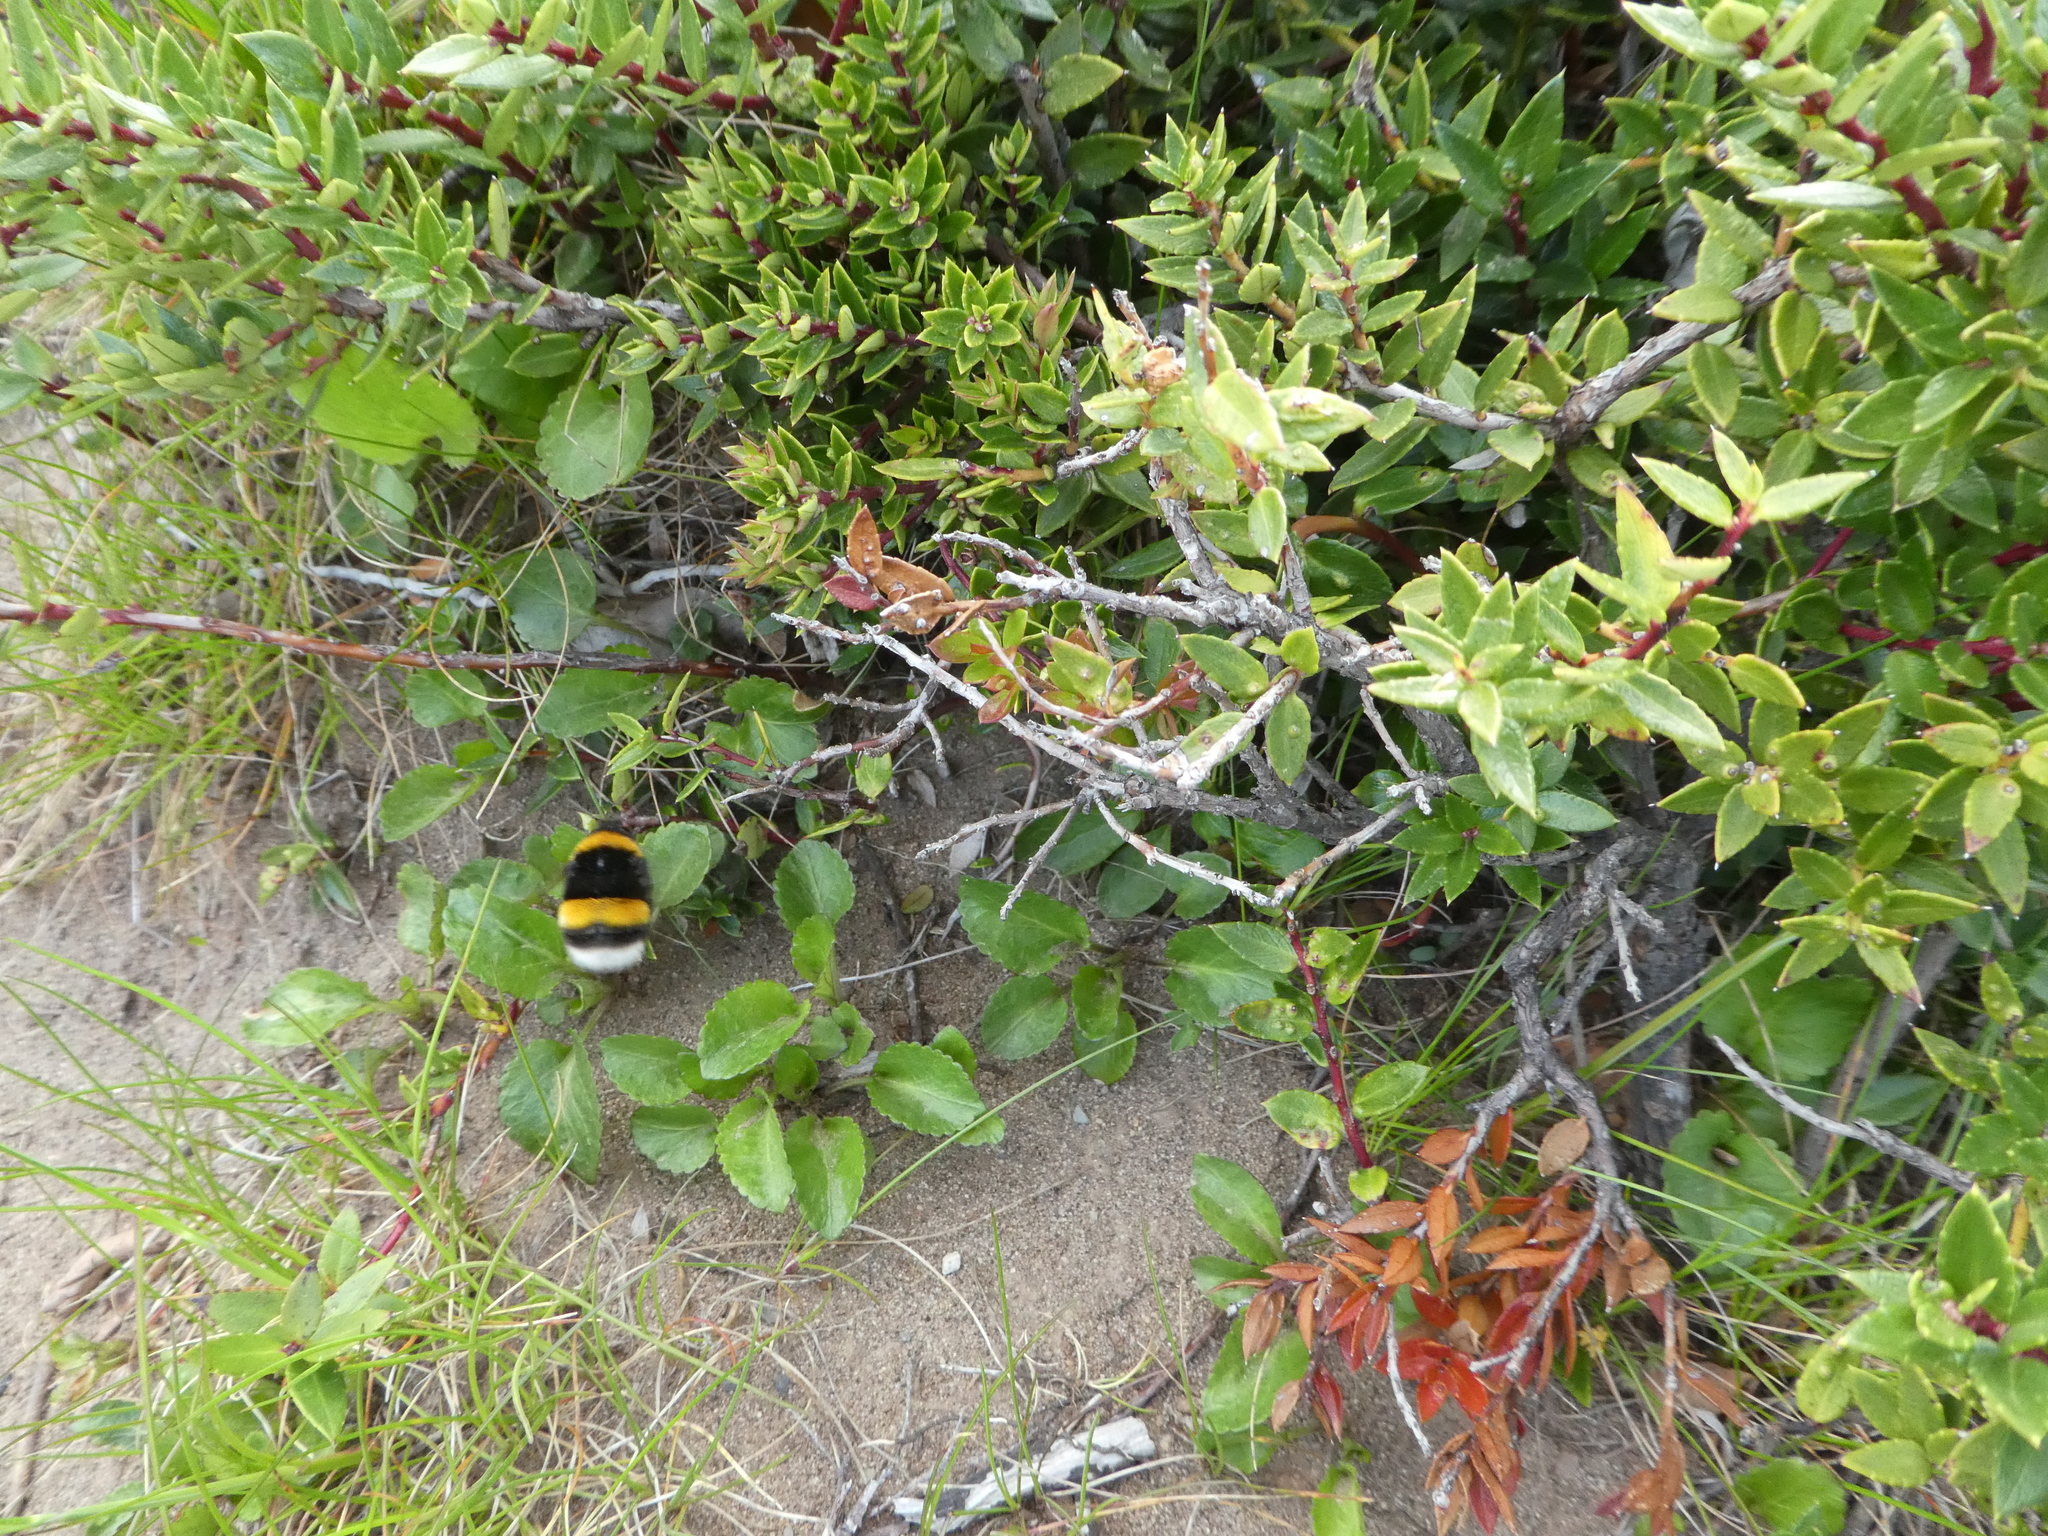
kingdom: Animalia
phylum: Arthropoda
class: Insecta
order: Hymenoptera
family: Apidae
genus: Bombus
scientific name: Bombus terrestris
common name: Buff-tailed bumblebee
